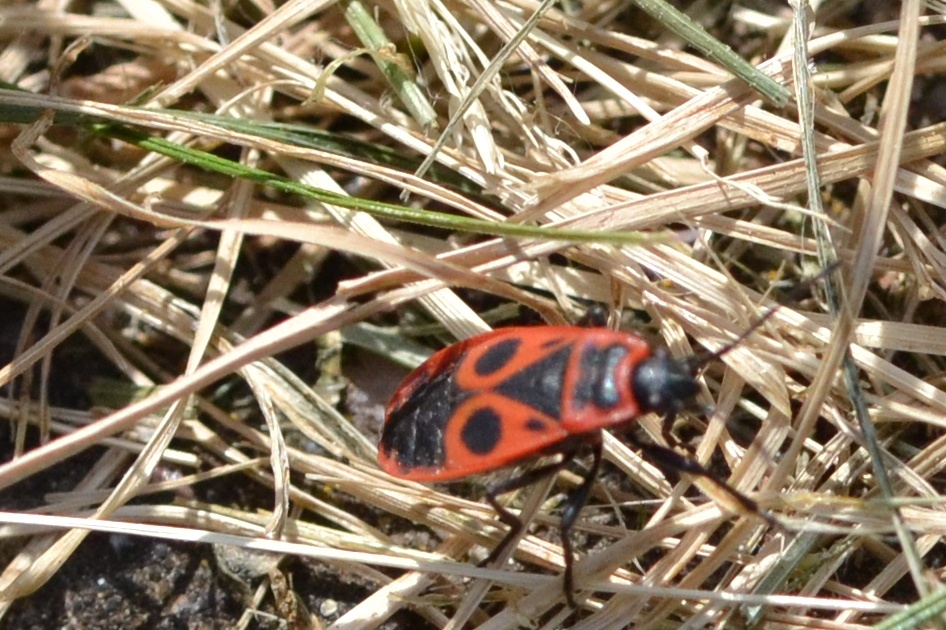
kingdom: Animalia
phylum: Arthropoda
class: Insecta
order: Hemiptera
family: Pyrrhocoridae
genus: Pyrrhocoris
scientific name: Pyrrhocoris apterus
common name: Firebug
